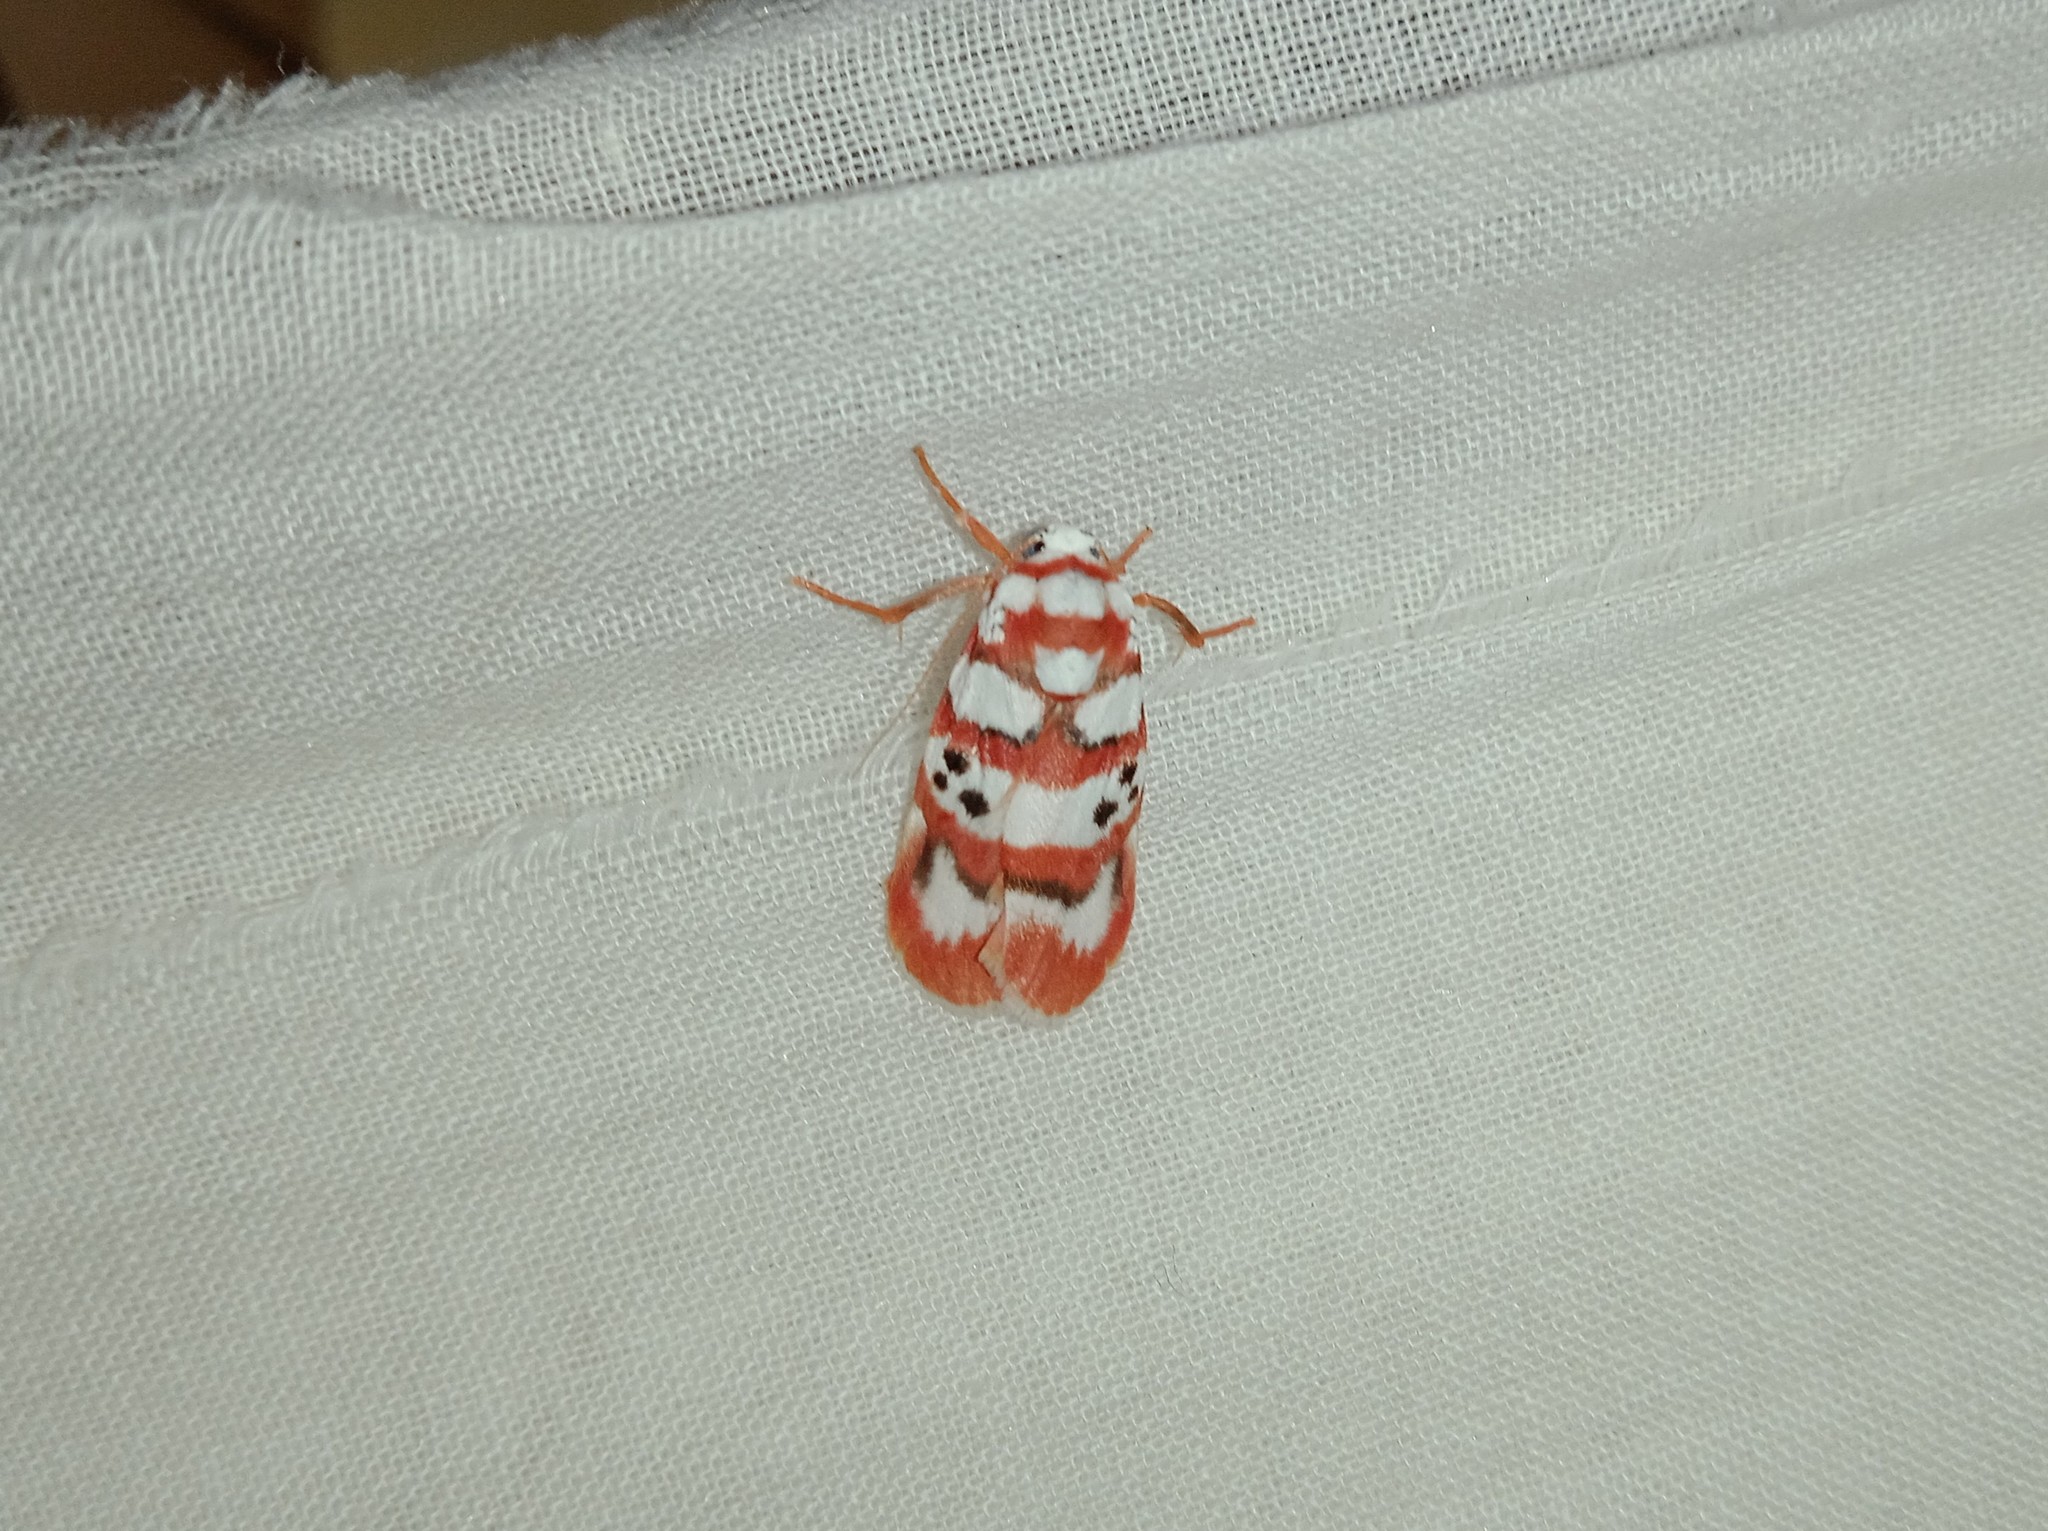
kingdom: Animalia
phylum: Arthropoda
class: Insecta
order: Lepidoptera
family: Erebidae
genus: Cyana
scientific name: Cyana bhatejai
